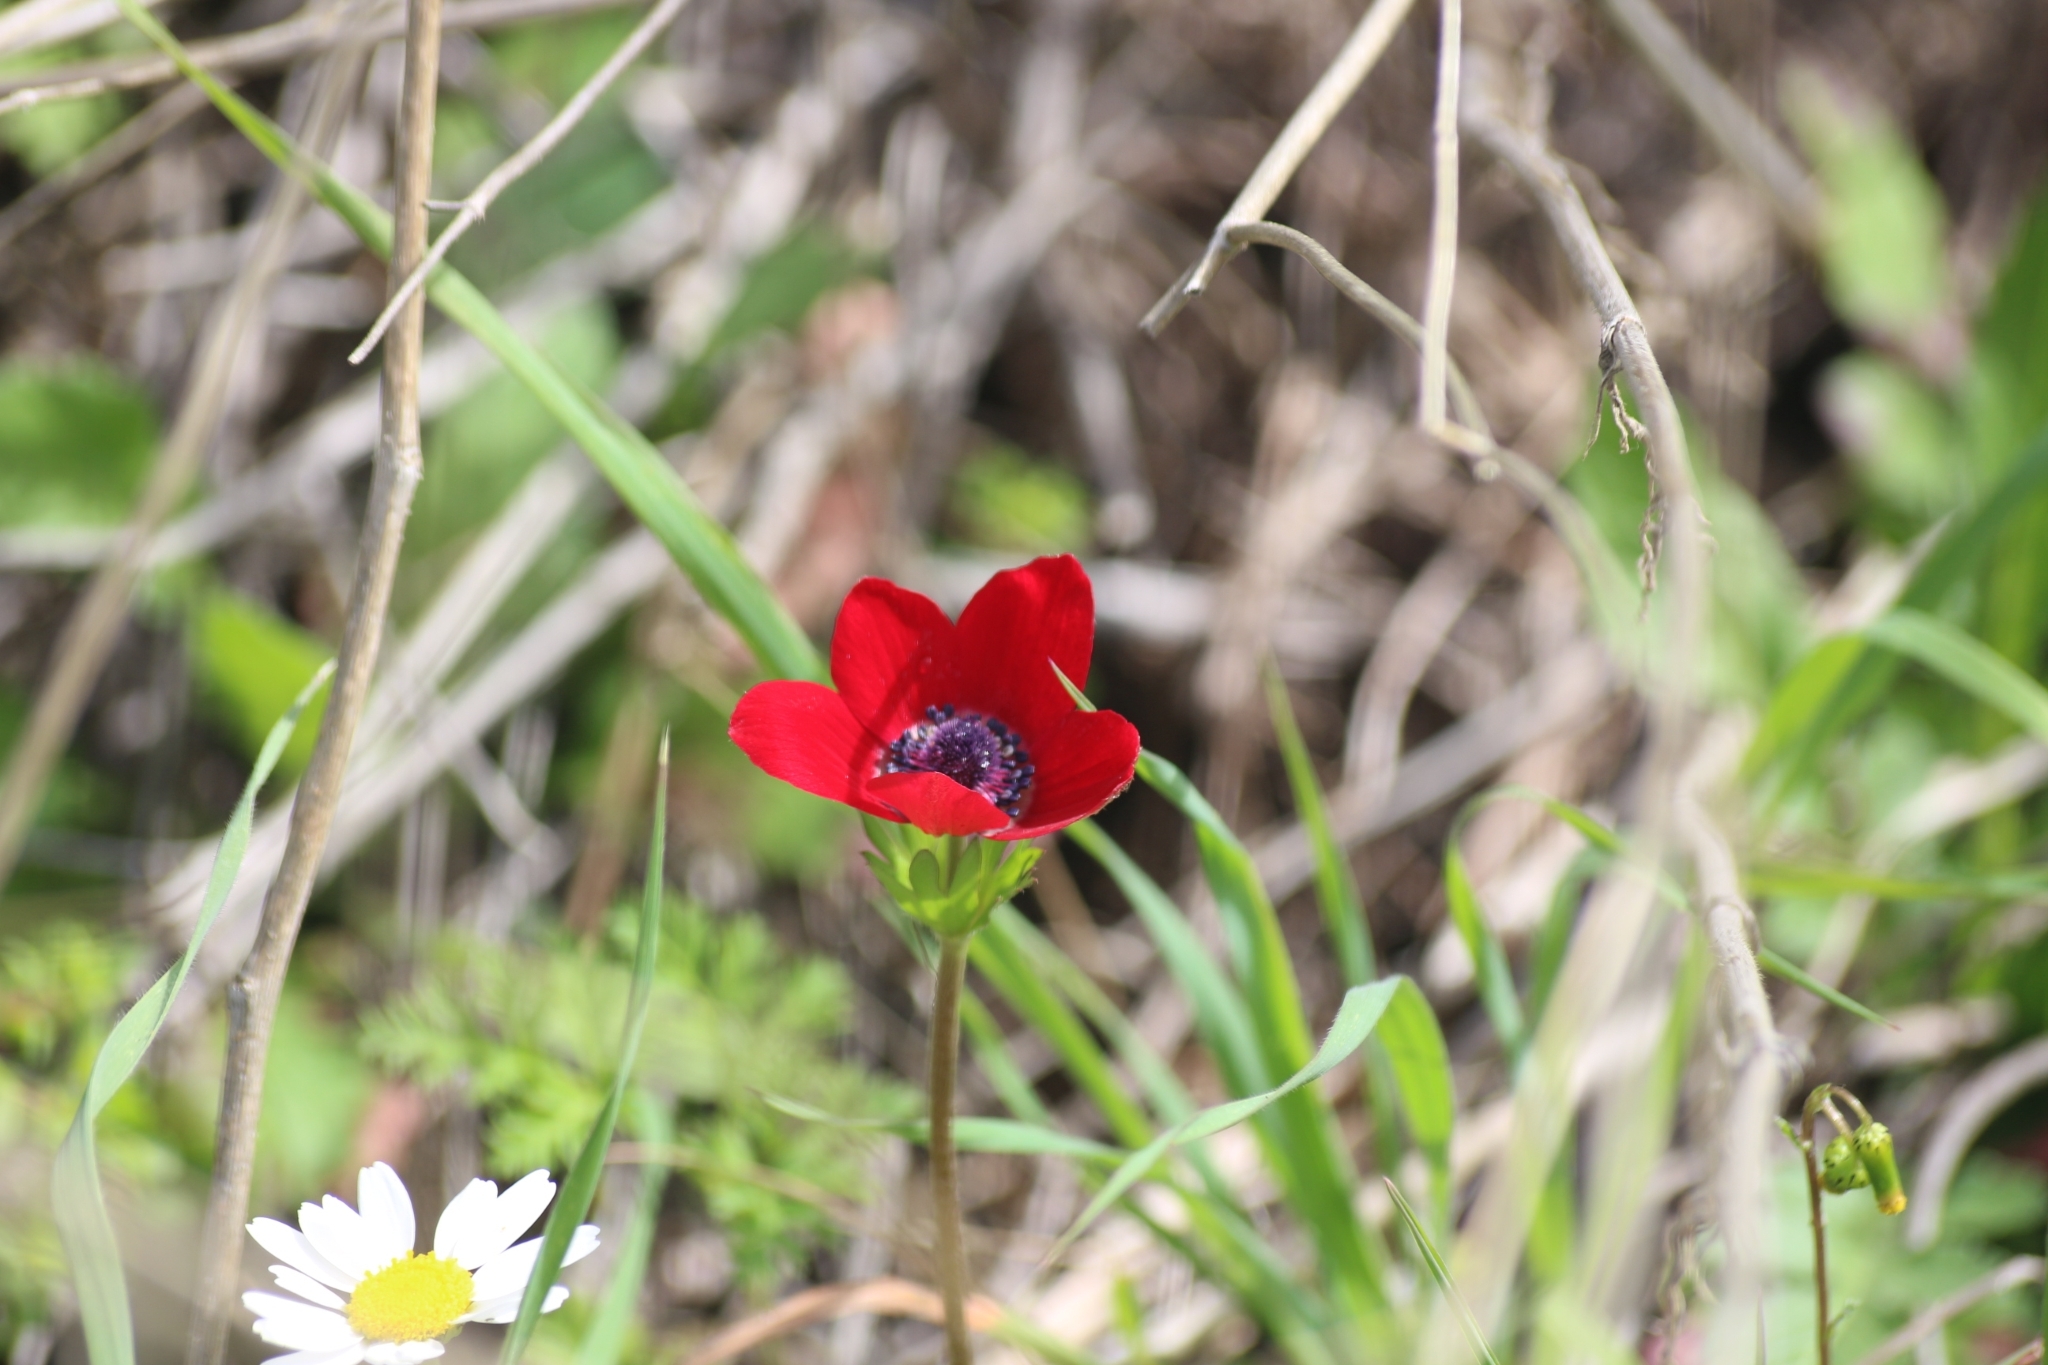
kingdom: Plantae
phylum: Tracheophyta
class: Magnoliopsida
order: Ranunculales
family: Ranunculaceae
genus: Anemone
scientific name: Anemone coronaria
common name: Poppy anemone
